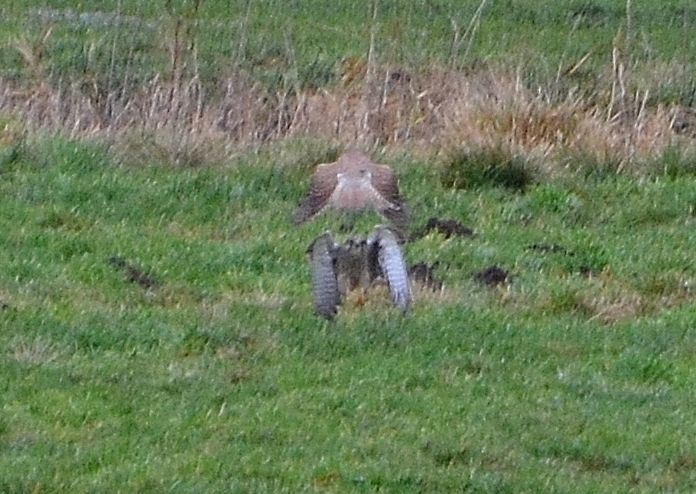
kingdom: Animalia
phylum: Chordata
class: Aves
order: Falconiformes
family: Falconidae
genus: Falco
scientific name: Falco tinnunculus
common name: Common kestrel
